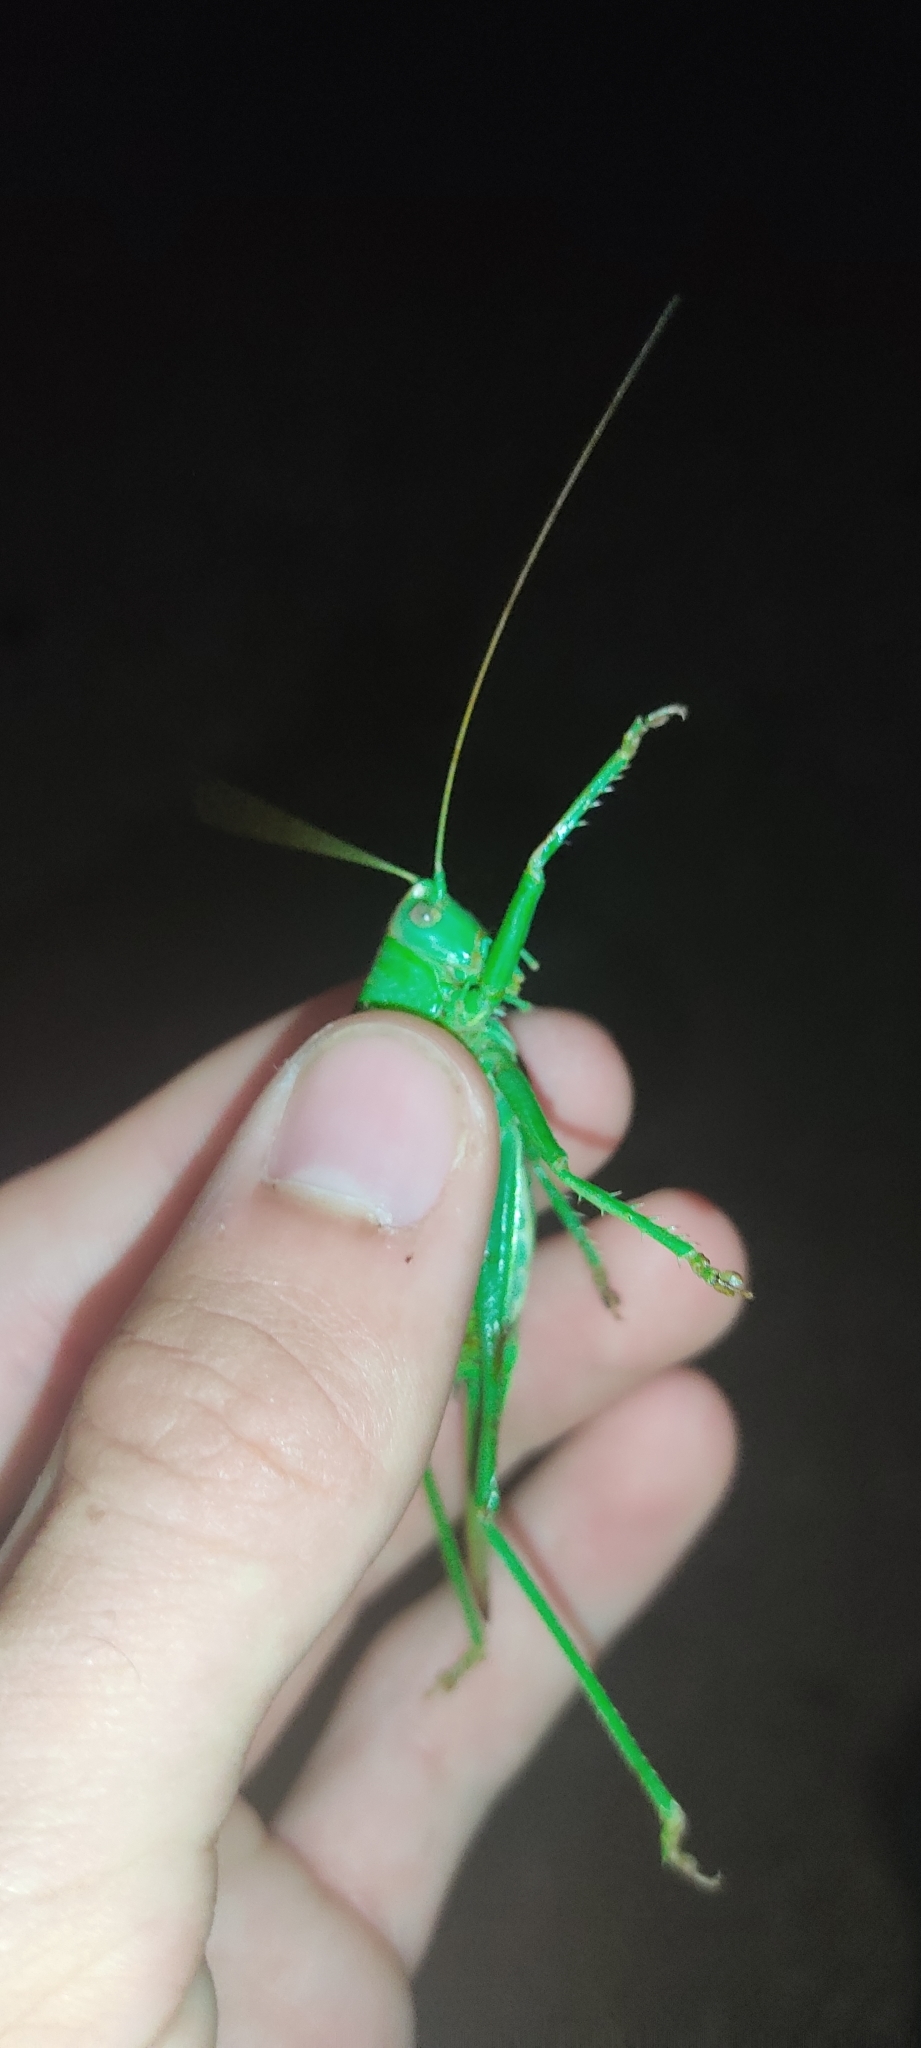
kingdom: Animalia
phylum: Arthropoda
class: Insecta
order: Orthoptera
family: Tettigoniidae
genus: Tettigonia
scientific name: Tettigonia viridissima
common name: Great green bush-cricket
